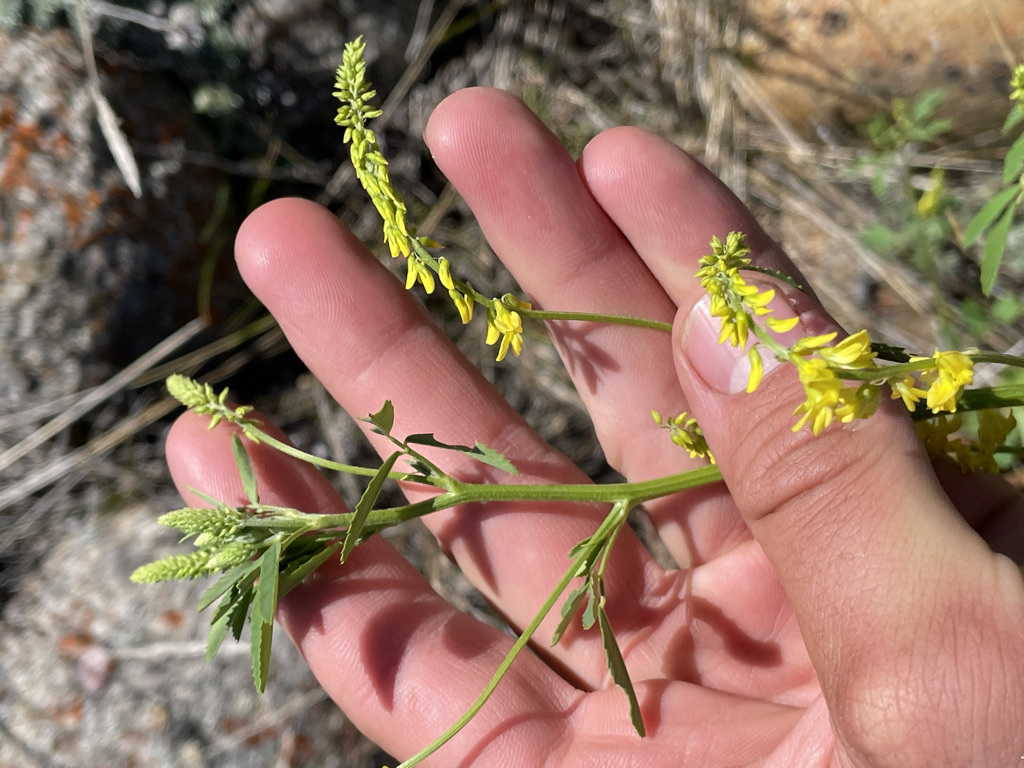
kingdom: Plantae
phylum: Tracheophyta
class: Magnoliopsida
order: Fabales
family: Fabaceae
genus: Melilotus
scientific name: Melilotus officinalis
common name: Sweetclover
